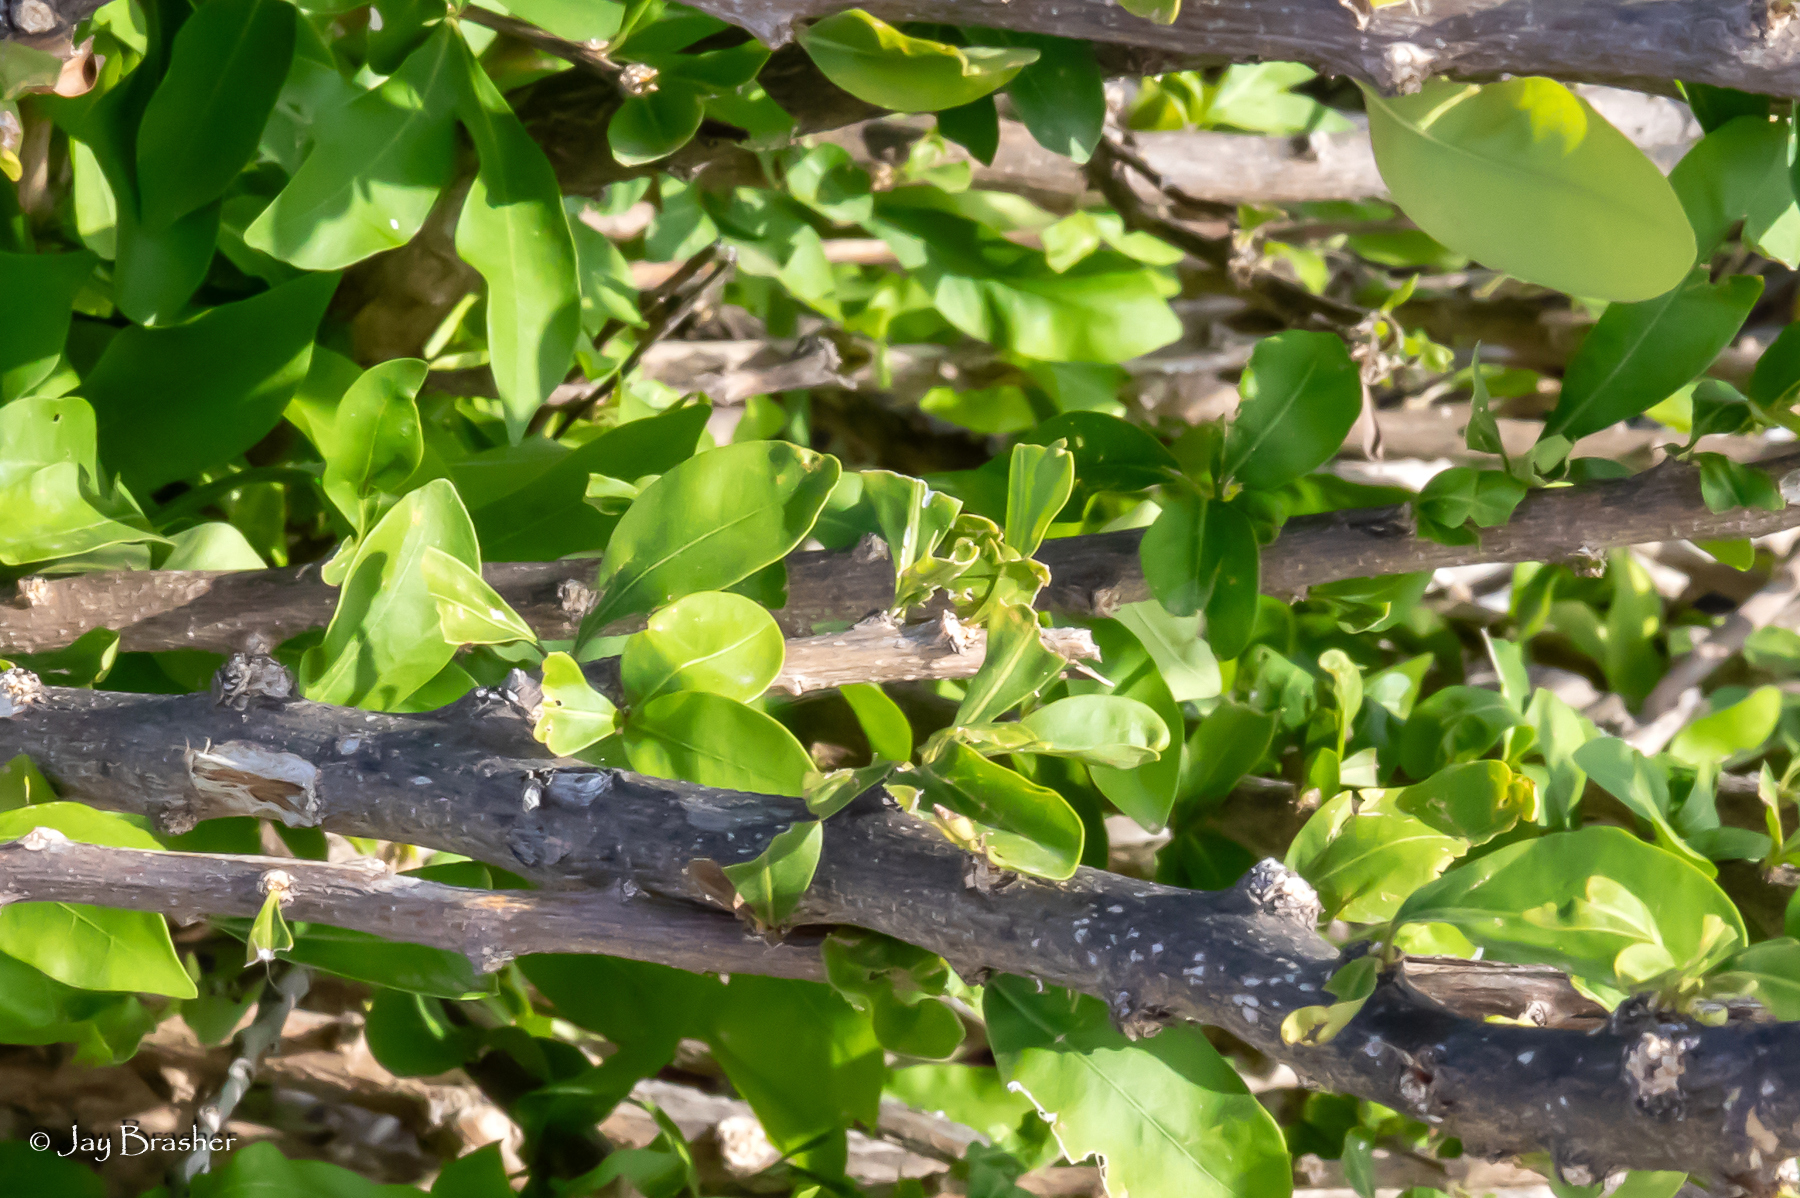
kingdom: Plantae
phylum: Tracheophyta
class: Magnoliopsida
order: Lamiales
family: Bignoniaceae
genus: Crescentia
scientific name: Crescentia cujete
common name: Calabash
